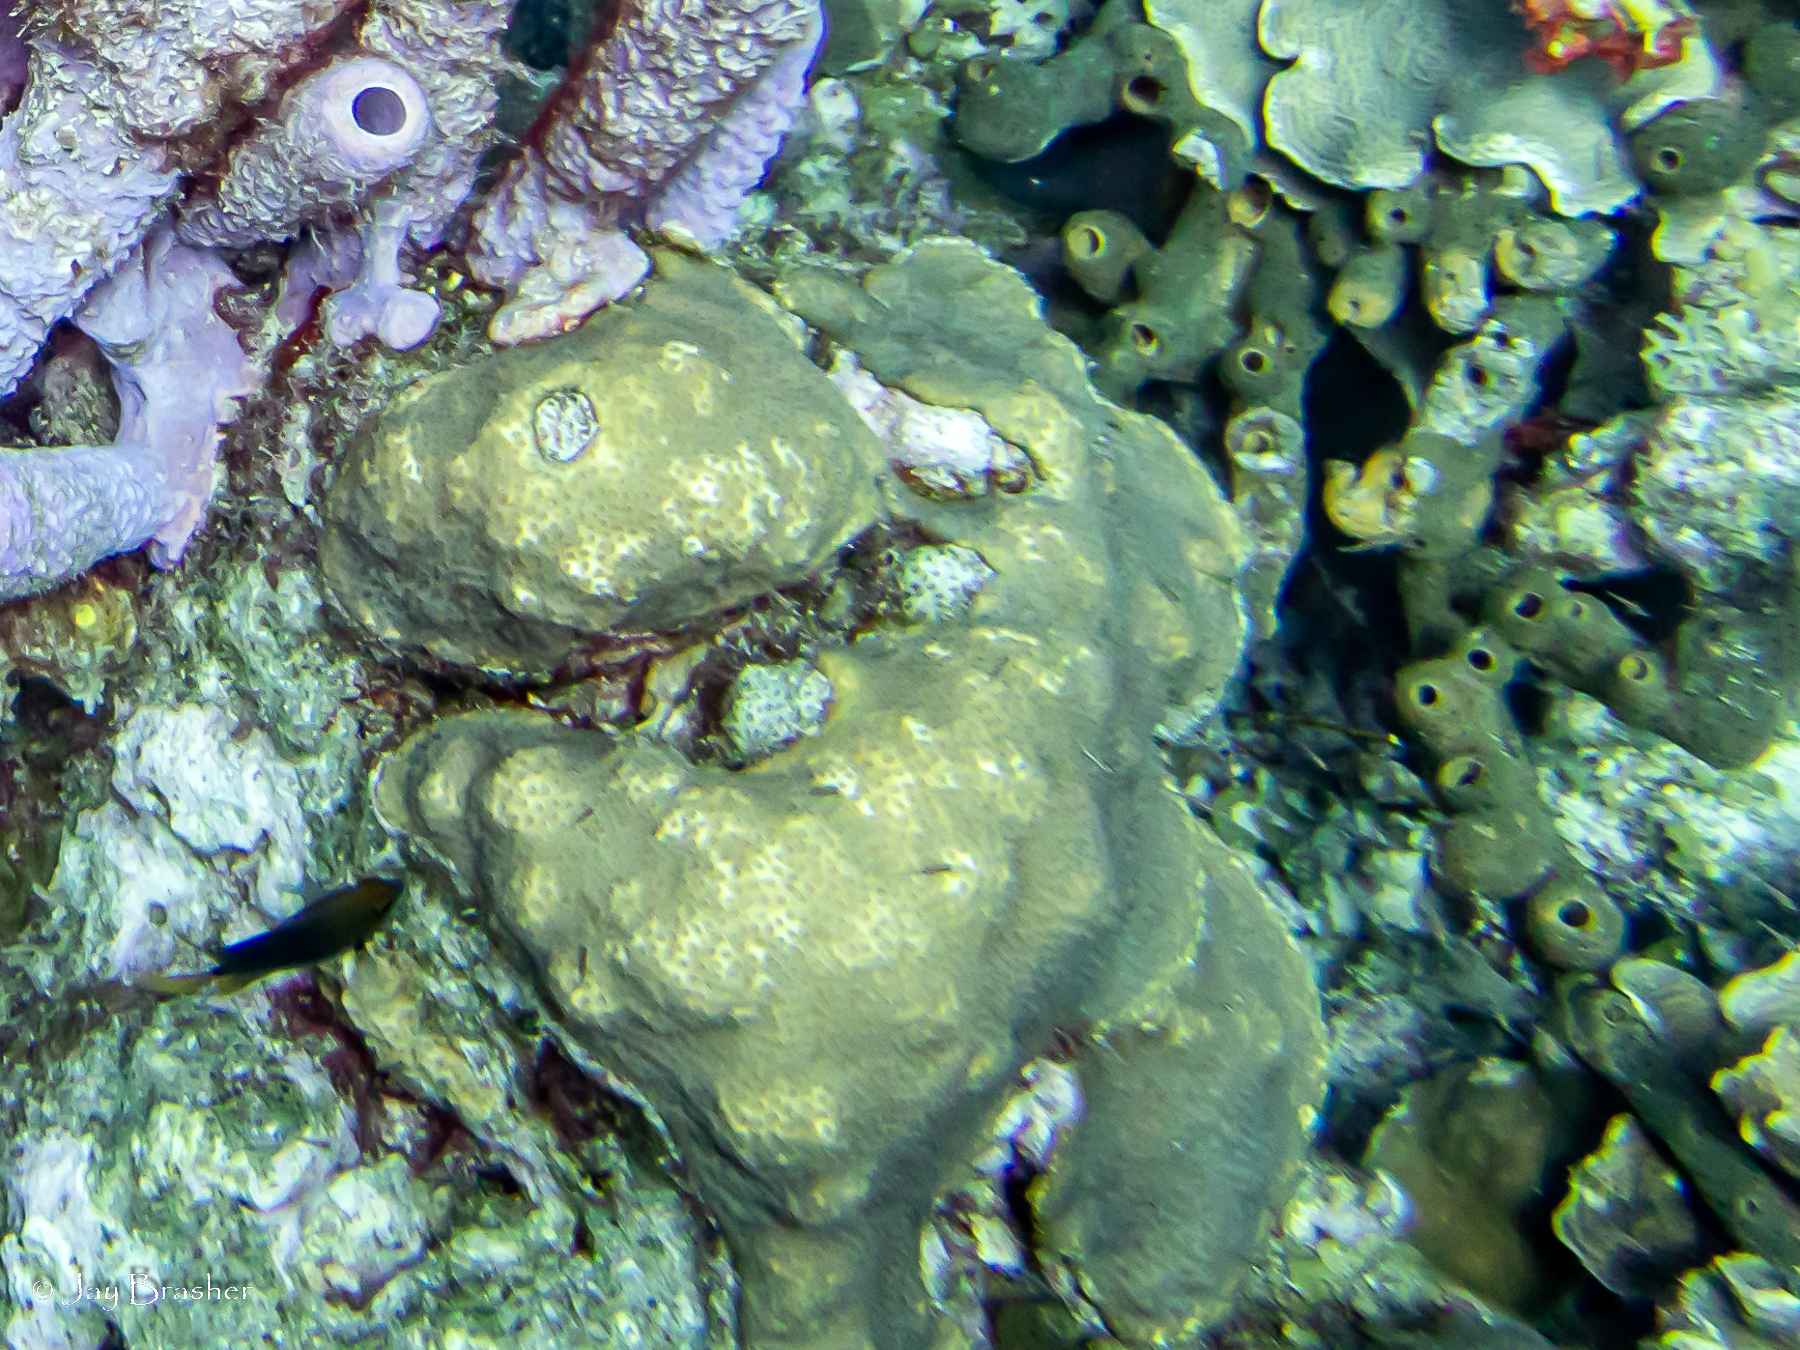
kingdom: Animalia
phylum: Porifera
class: Demospongiae
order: Agelasida
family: Agelasidae
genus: Agelas
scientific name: Agelas conifera
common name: Brown tube sponge
